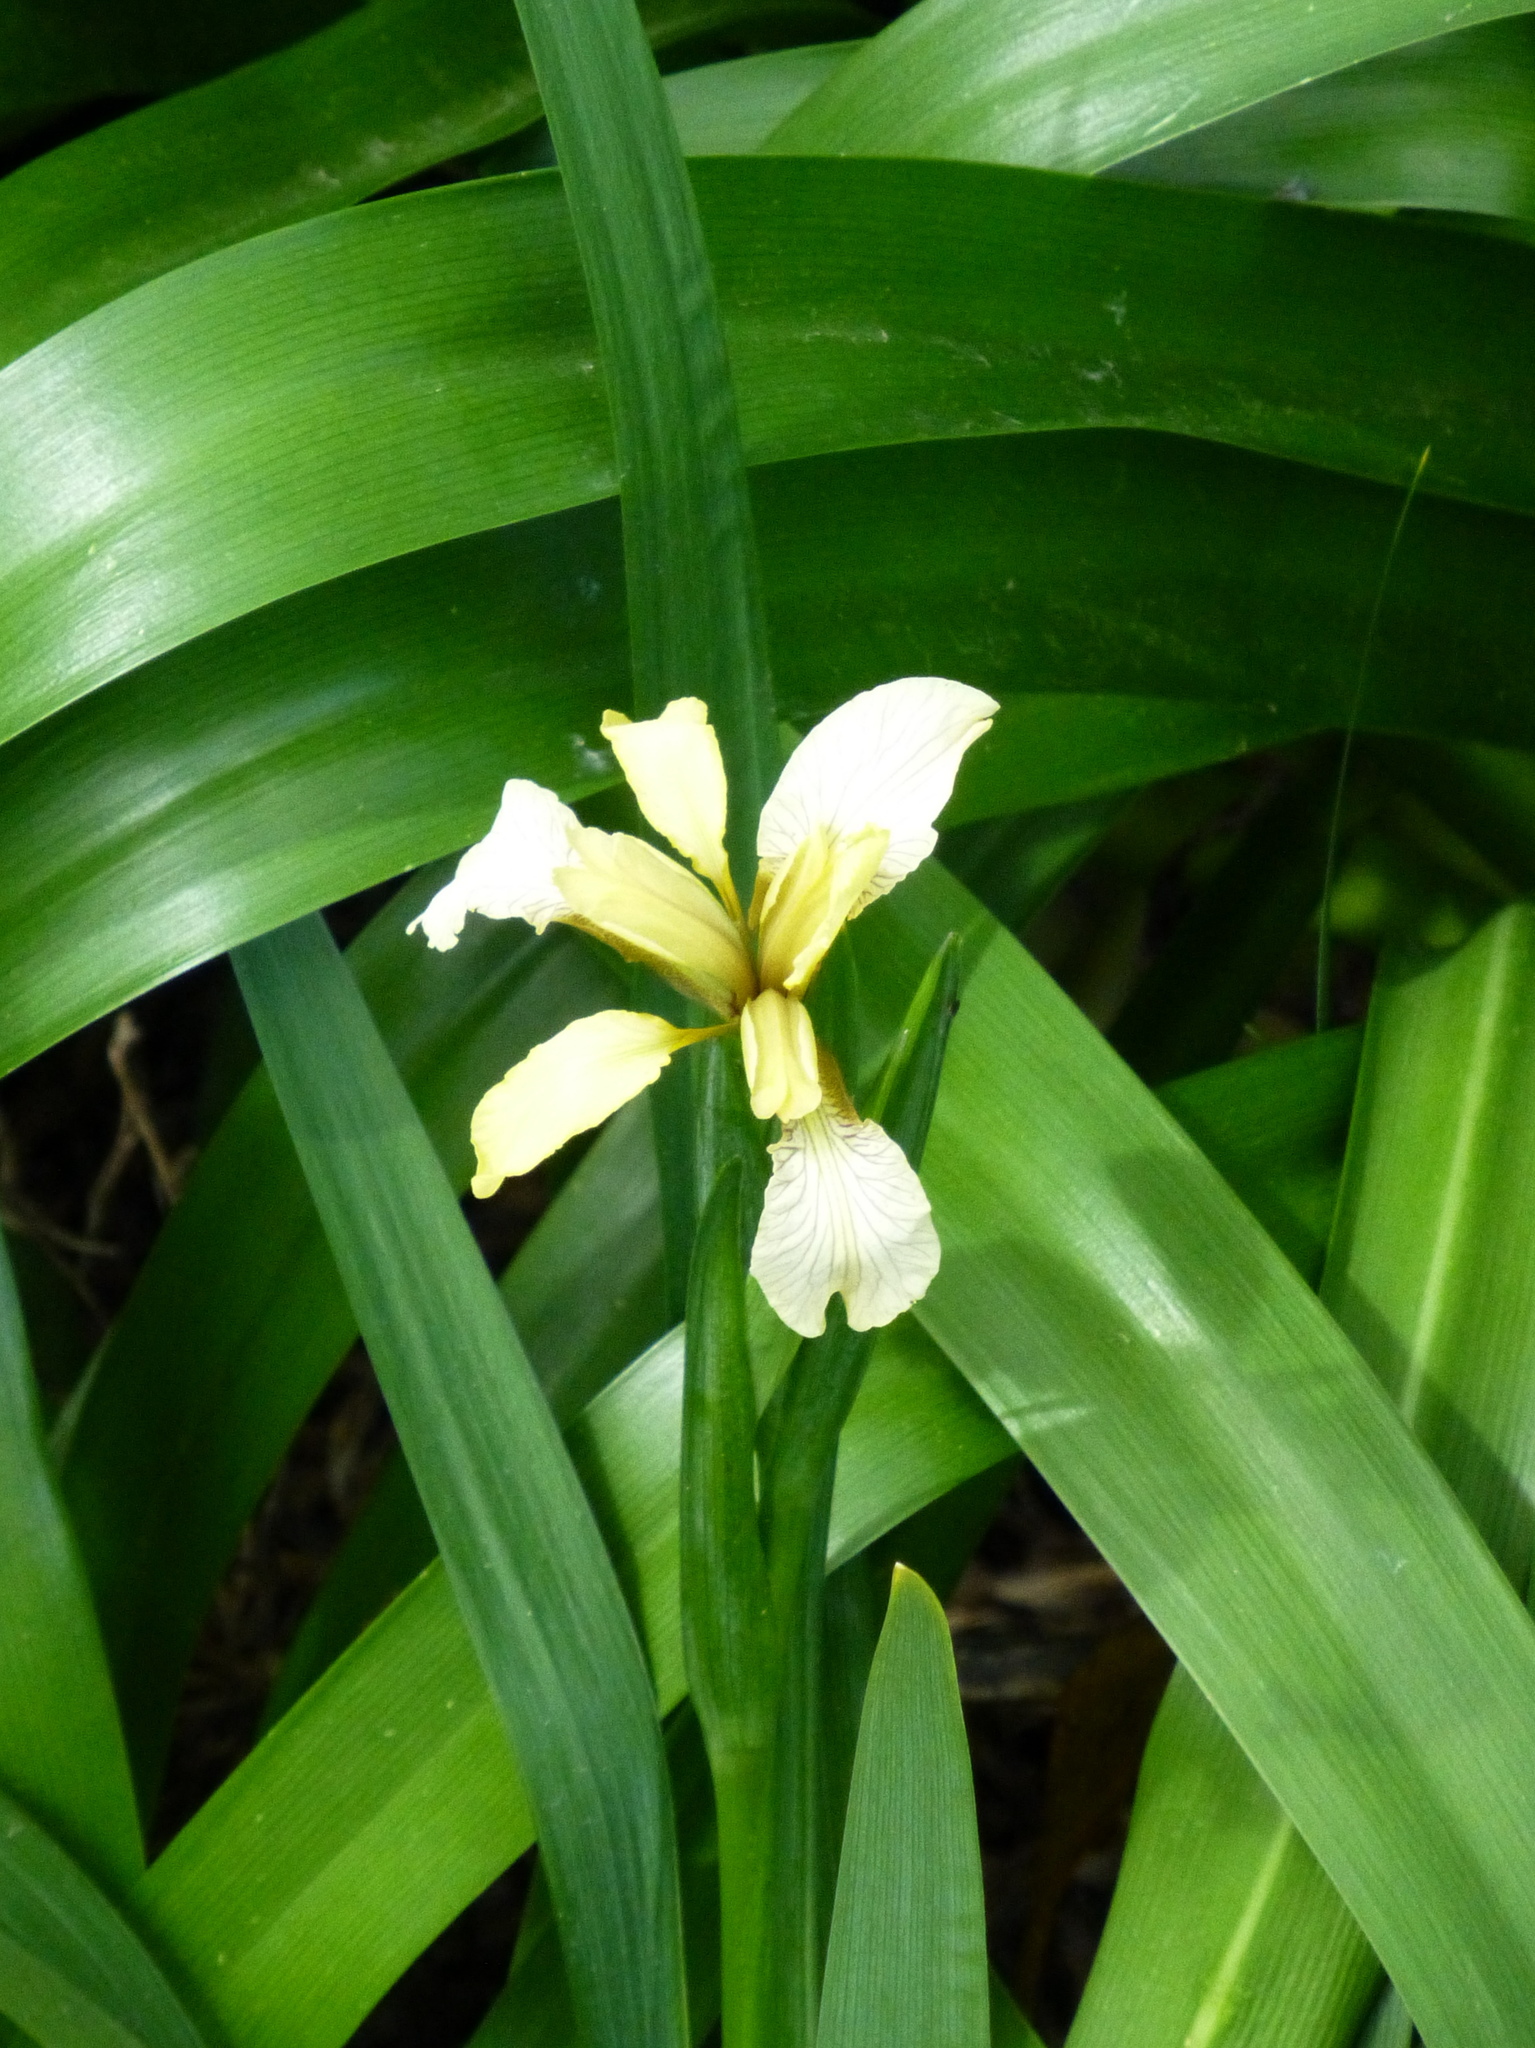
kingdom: Plantae
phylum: Tracheophyta
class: Liliopsida
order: Asparagales
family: Iridaceae
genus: Iris
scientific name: Iris foetidissima
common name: Stinking iris
